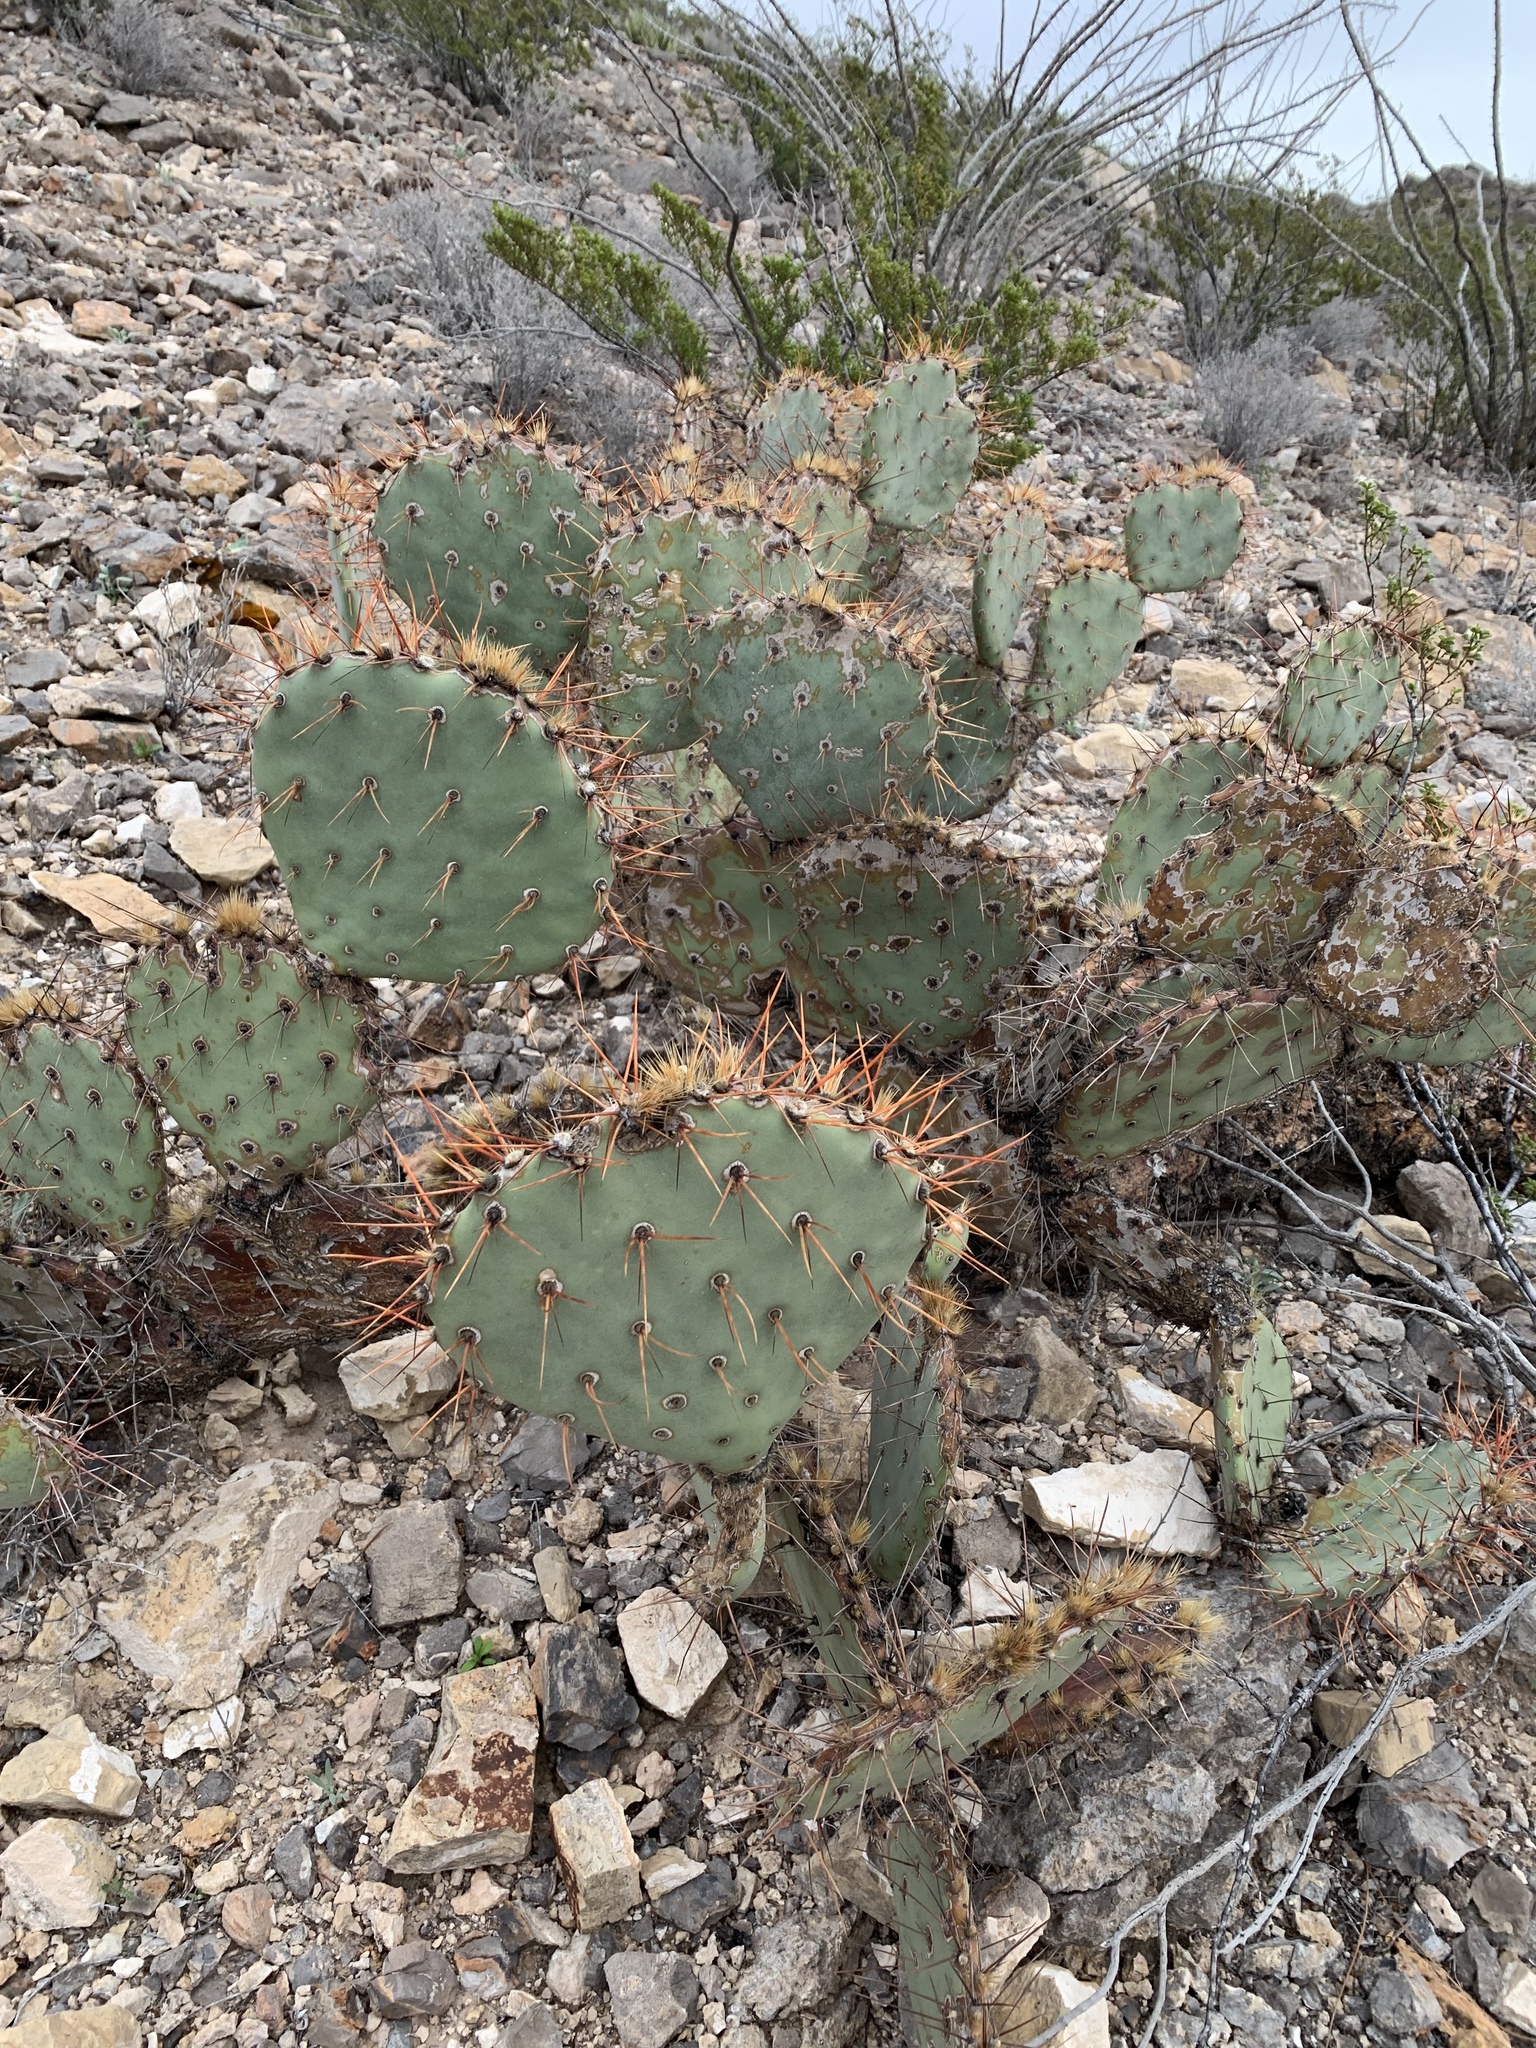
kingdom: Plantae
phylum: Tracheophyta
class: Magnoliopsida
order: Caryophyllales
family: Cactaceae
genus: Opuntia
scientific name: Opuntia phaeacantha
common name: New mexico prickly-pear
